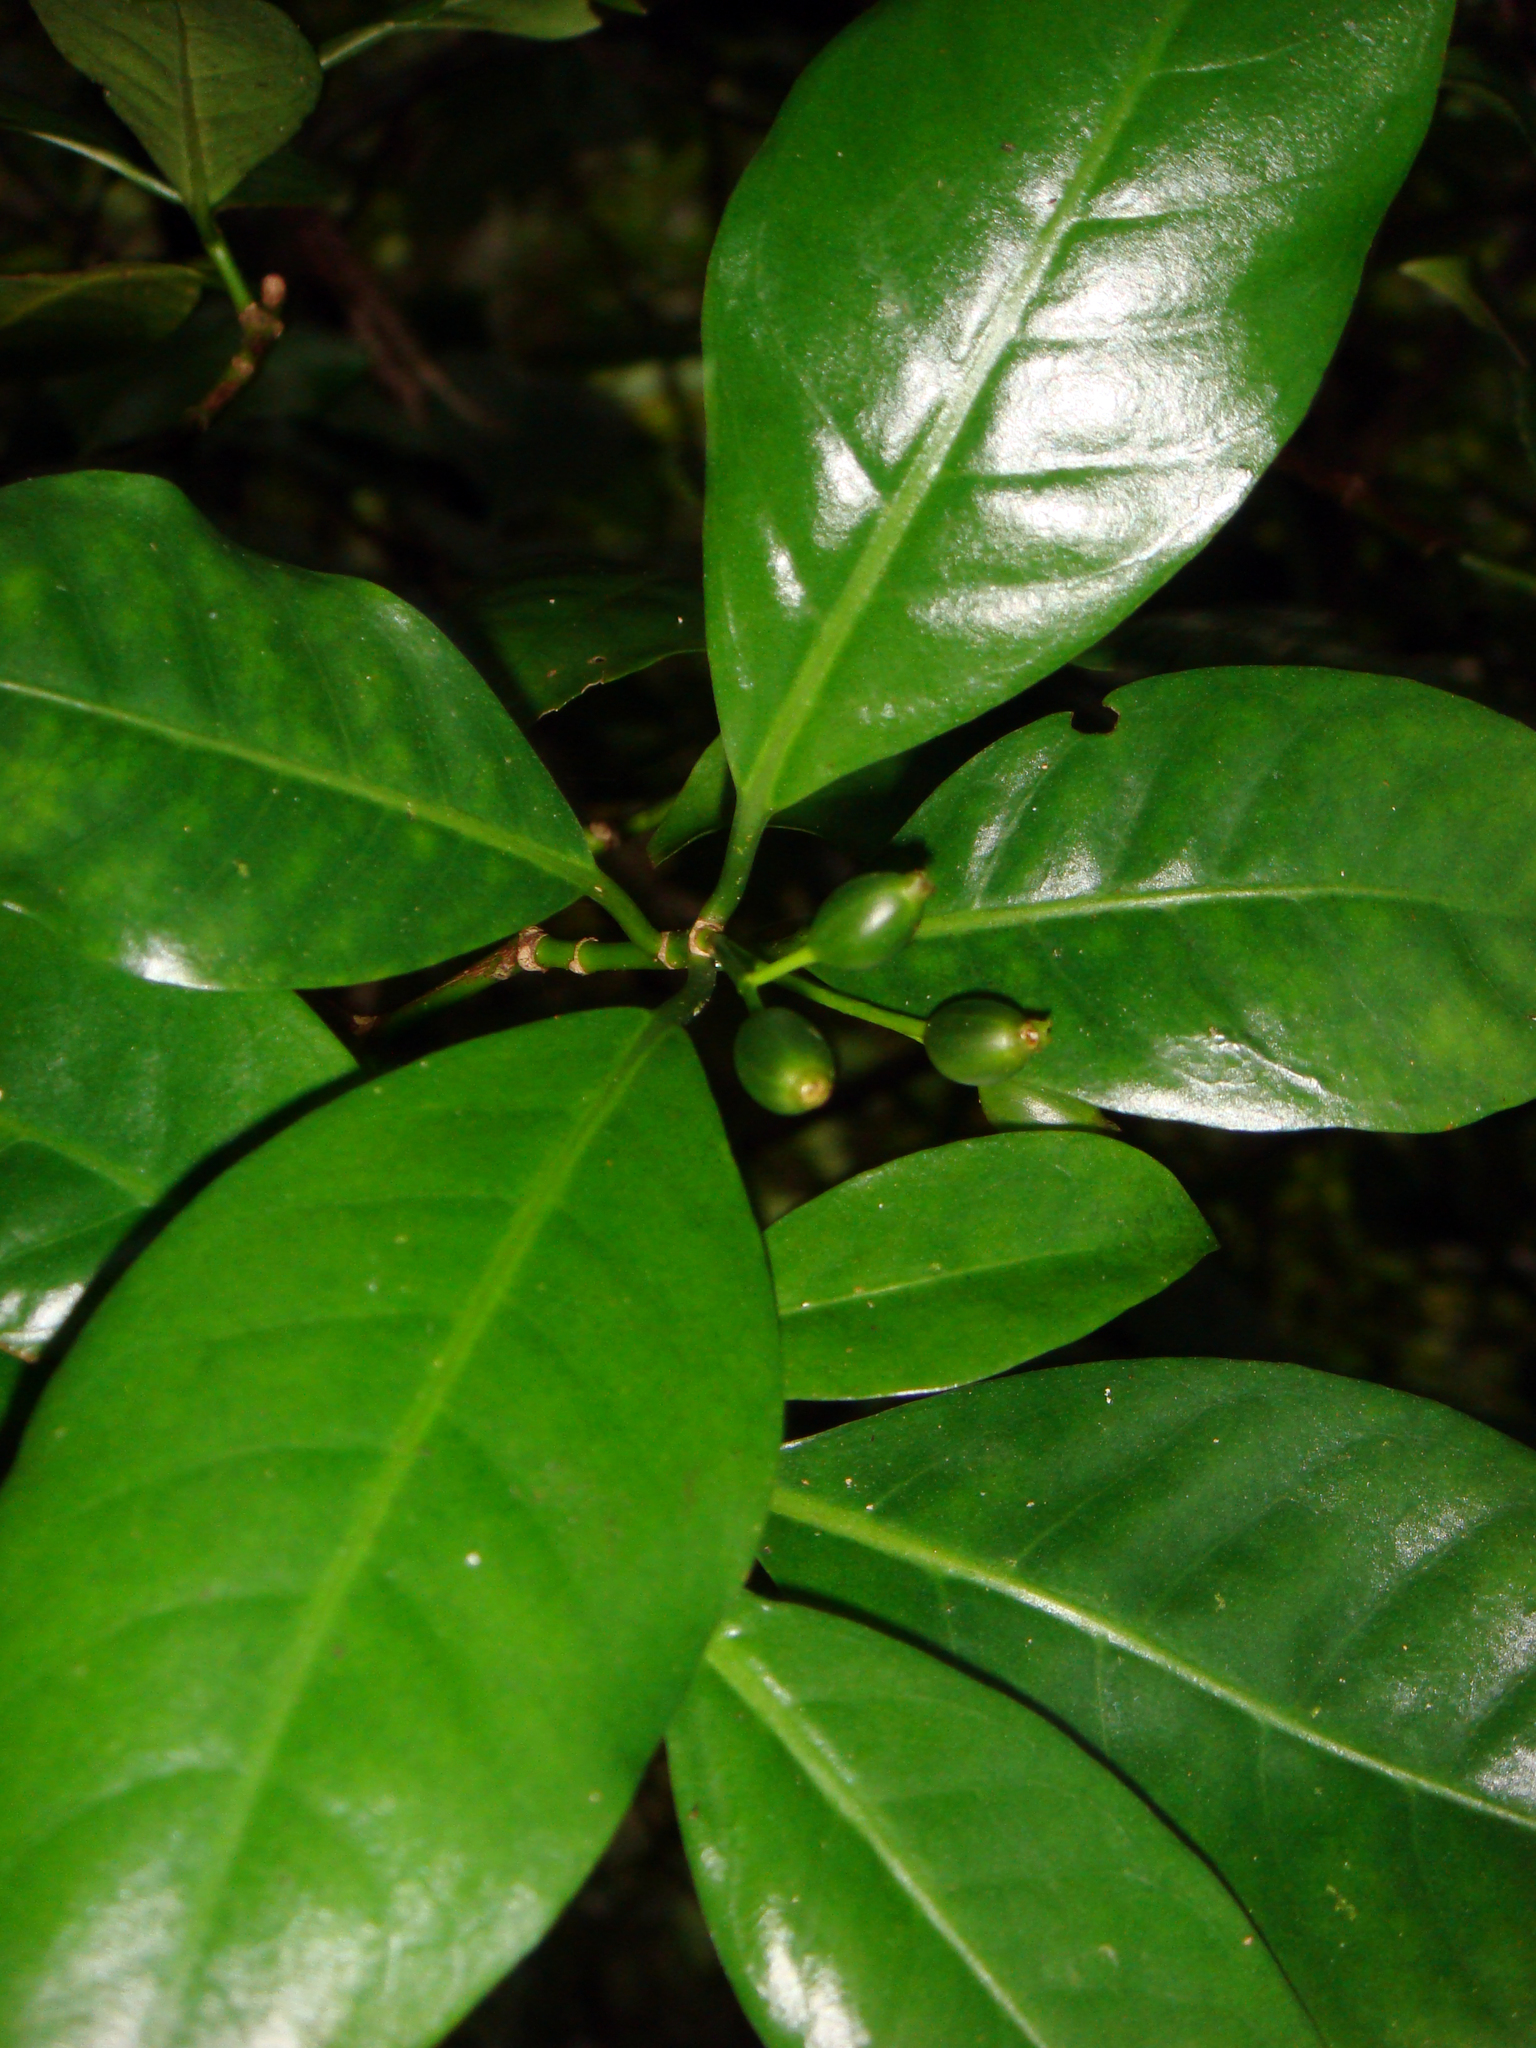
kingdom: Plantae
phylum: Tracheophyta
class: Magnoliopsida
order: Gentianales
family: Rubiaceae
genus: Psychotria
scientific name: Psychotria whistleri
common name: Rarotonga psychotria
